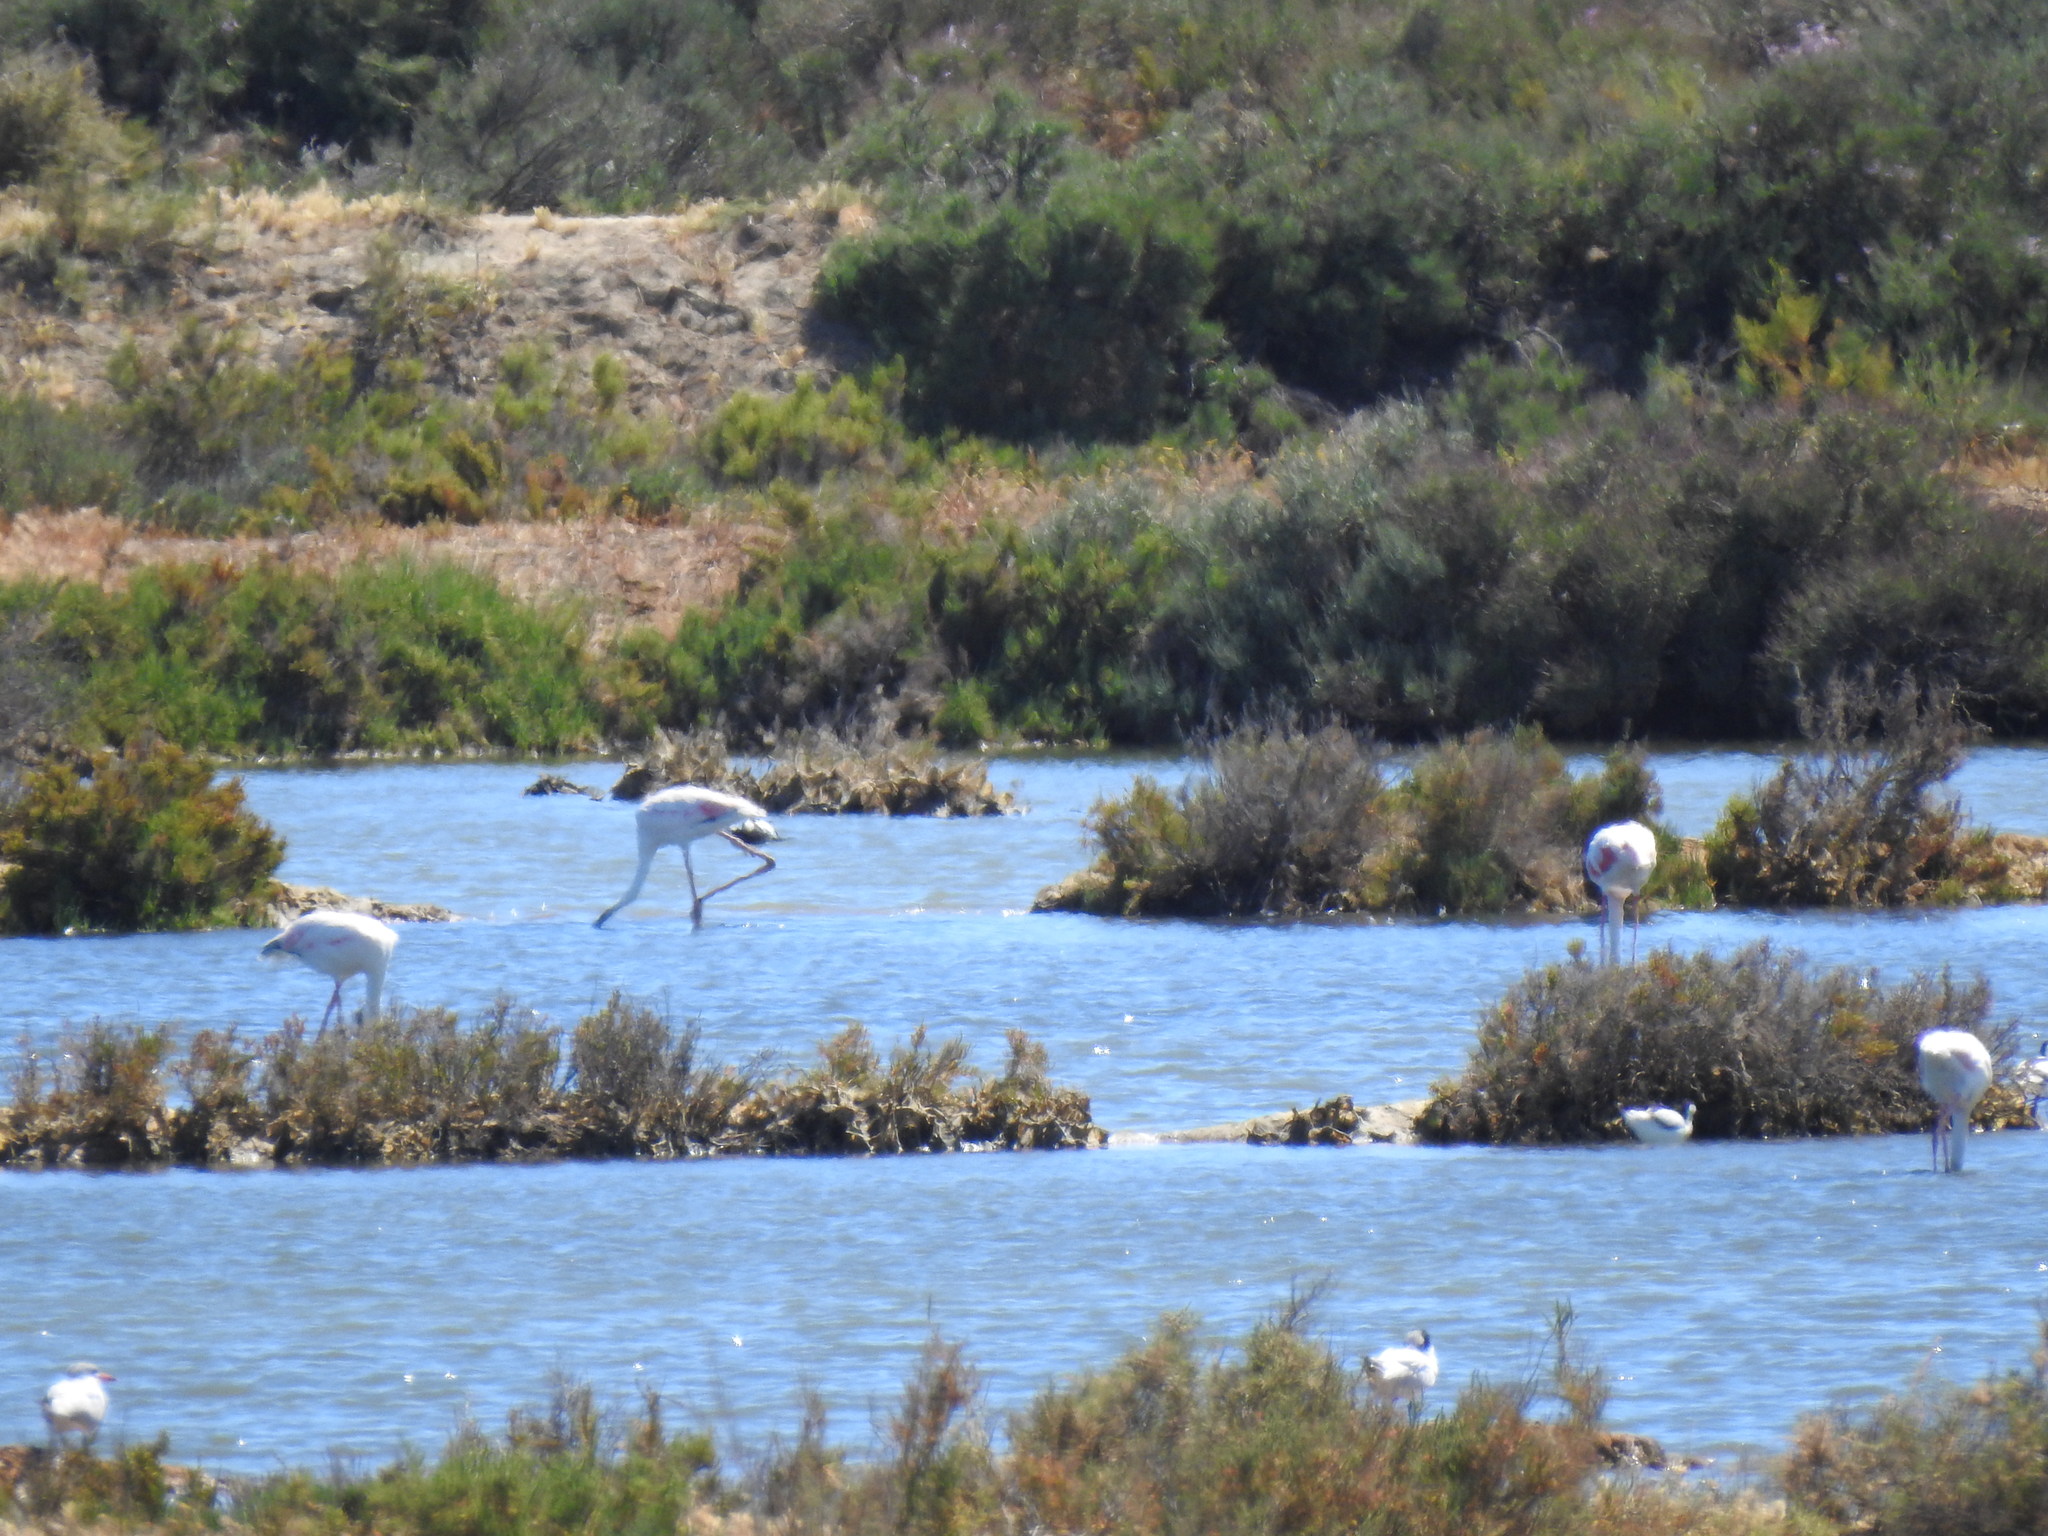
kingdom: Animalia
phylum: Chordata
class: Aves
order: Phoenicopteriformes
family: Phoenicopteridae
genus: Phoenicopterus
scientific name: Phoenicopterus roseus
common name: Greater flamingo
